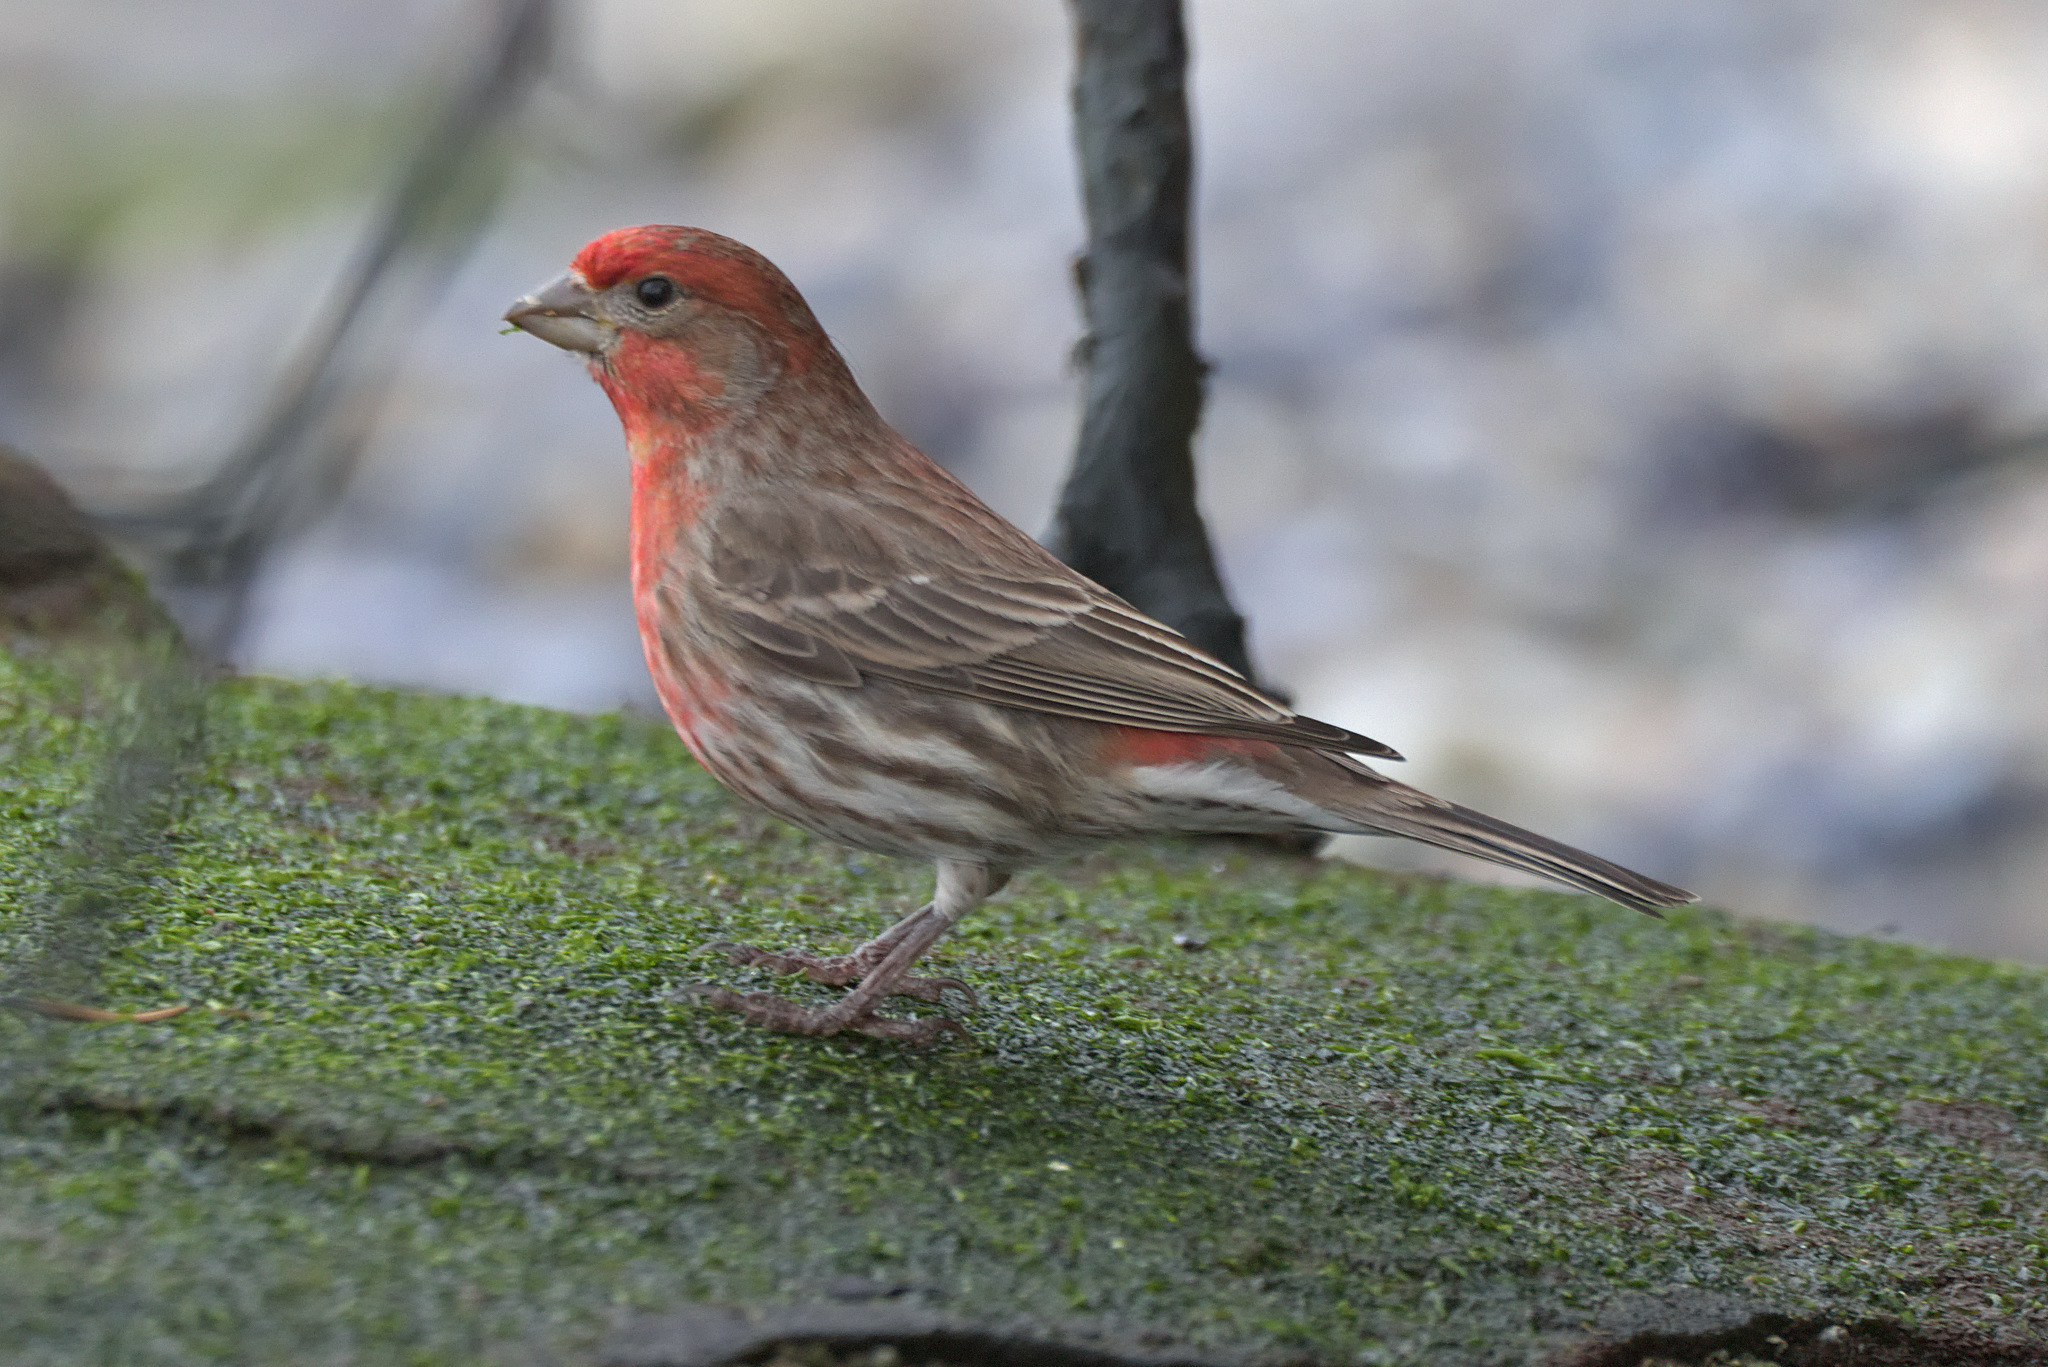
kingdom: Animalia
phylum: Chordata
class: Aves
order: Passeriformes
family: Fringillidae
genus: Haemorhous
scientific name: Haemorhous mexicanus
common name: House finch
